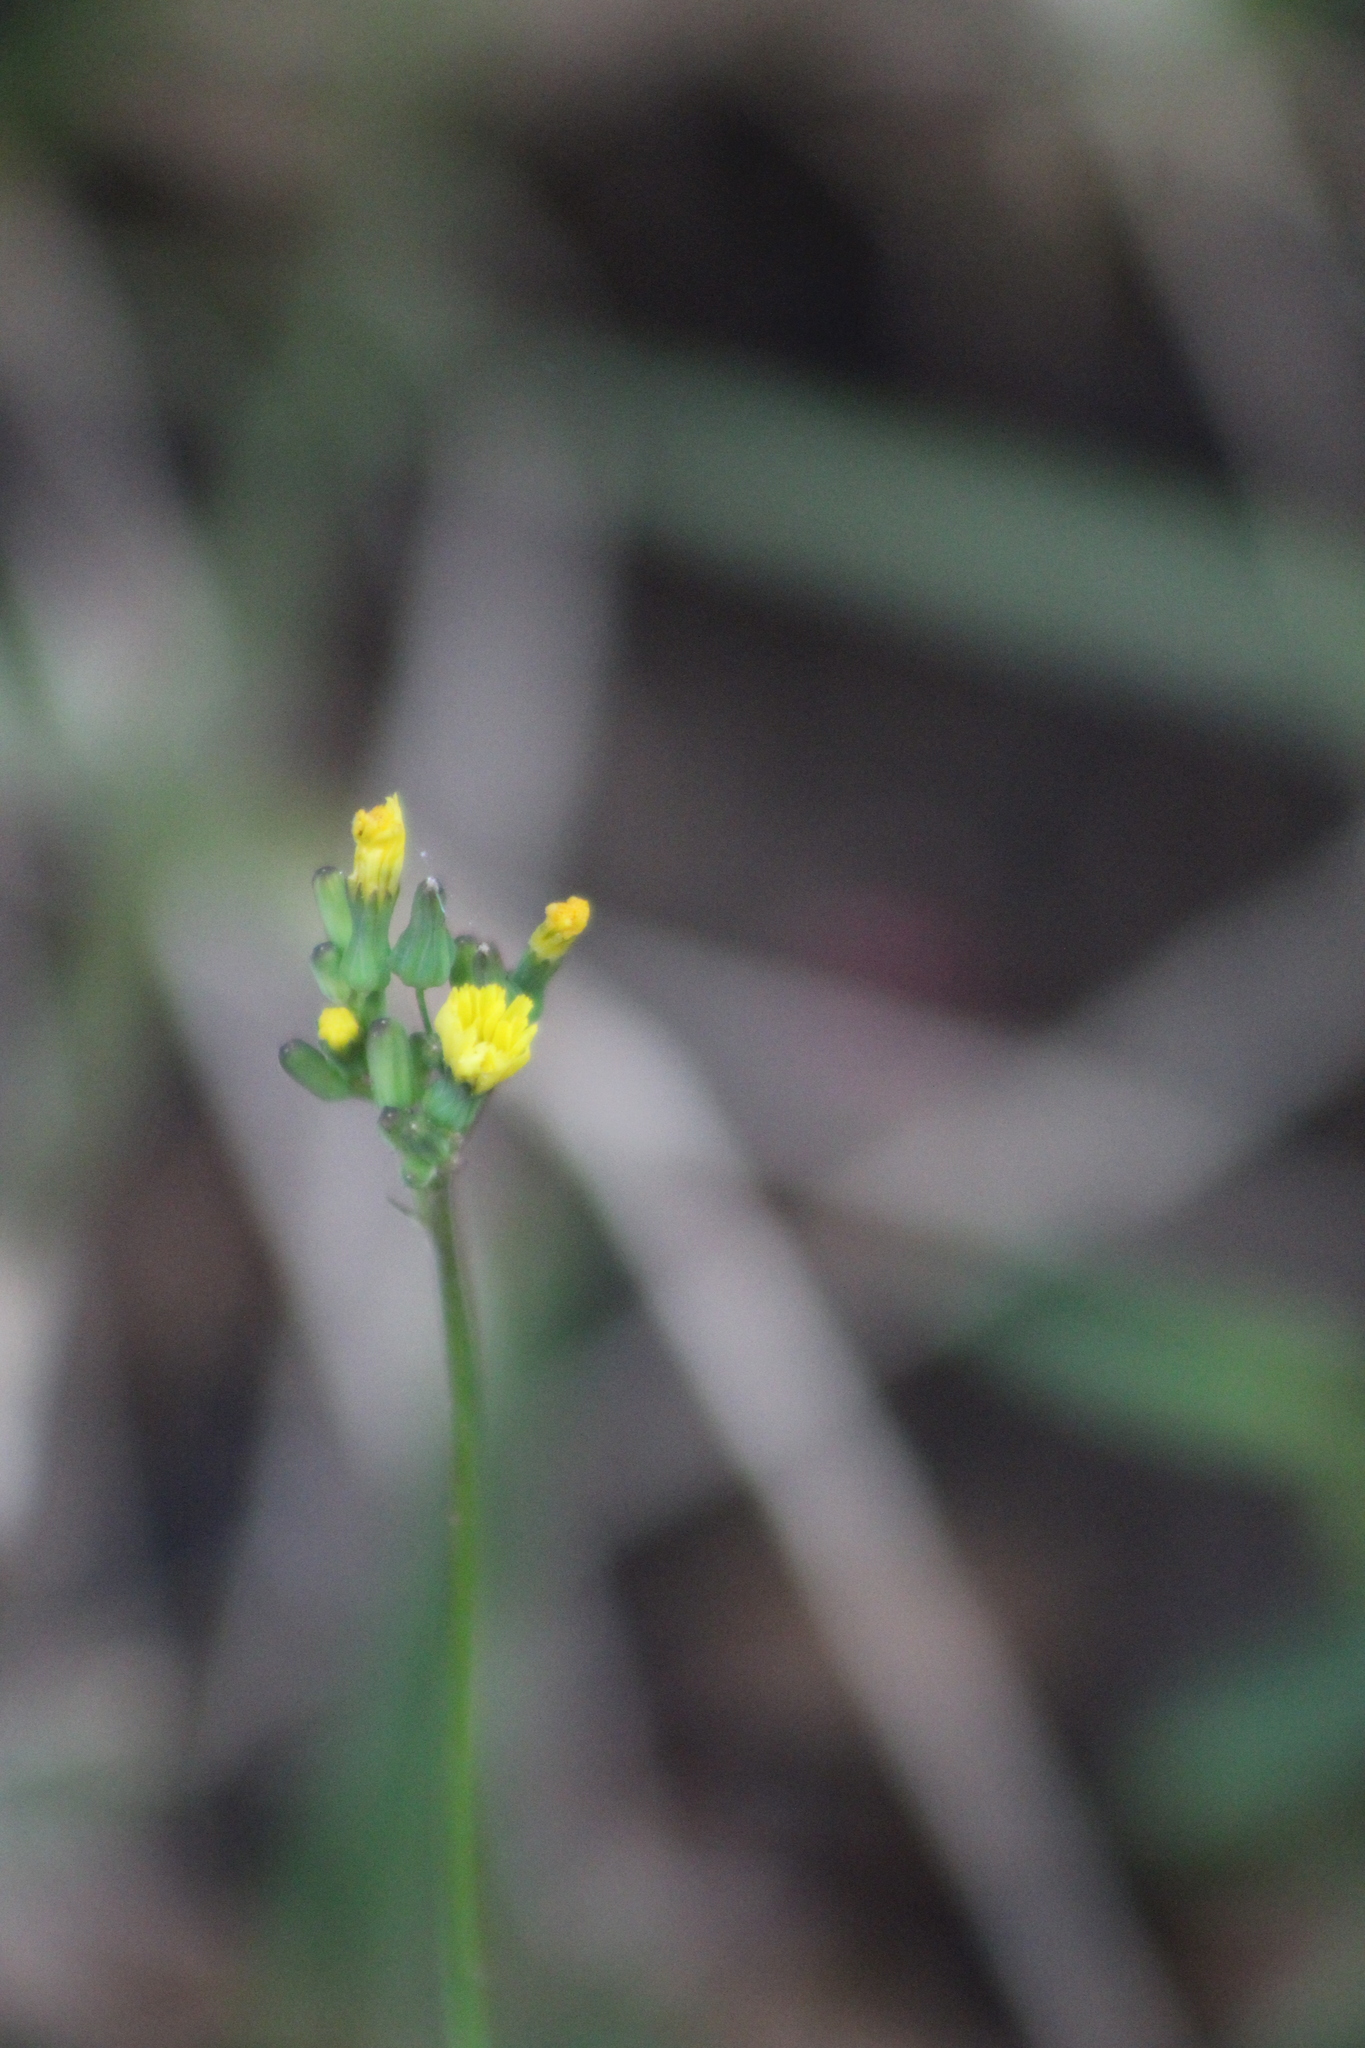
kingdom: Plantae
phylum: Tracheophyta
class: Magnoliopsida
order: Asterales
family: Asteraceae
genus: Youngia
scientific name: Youngia japonica
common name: Oriental false hawksbeard
